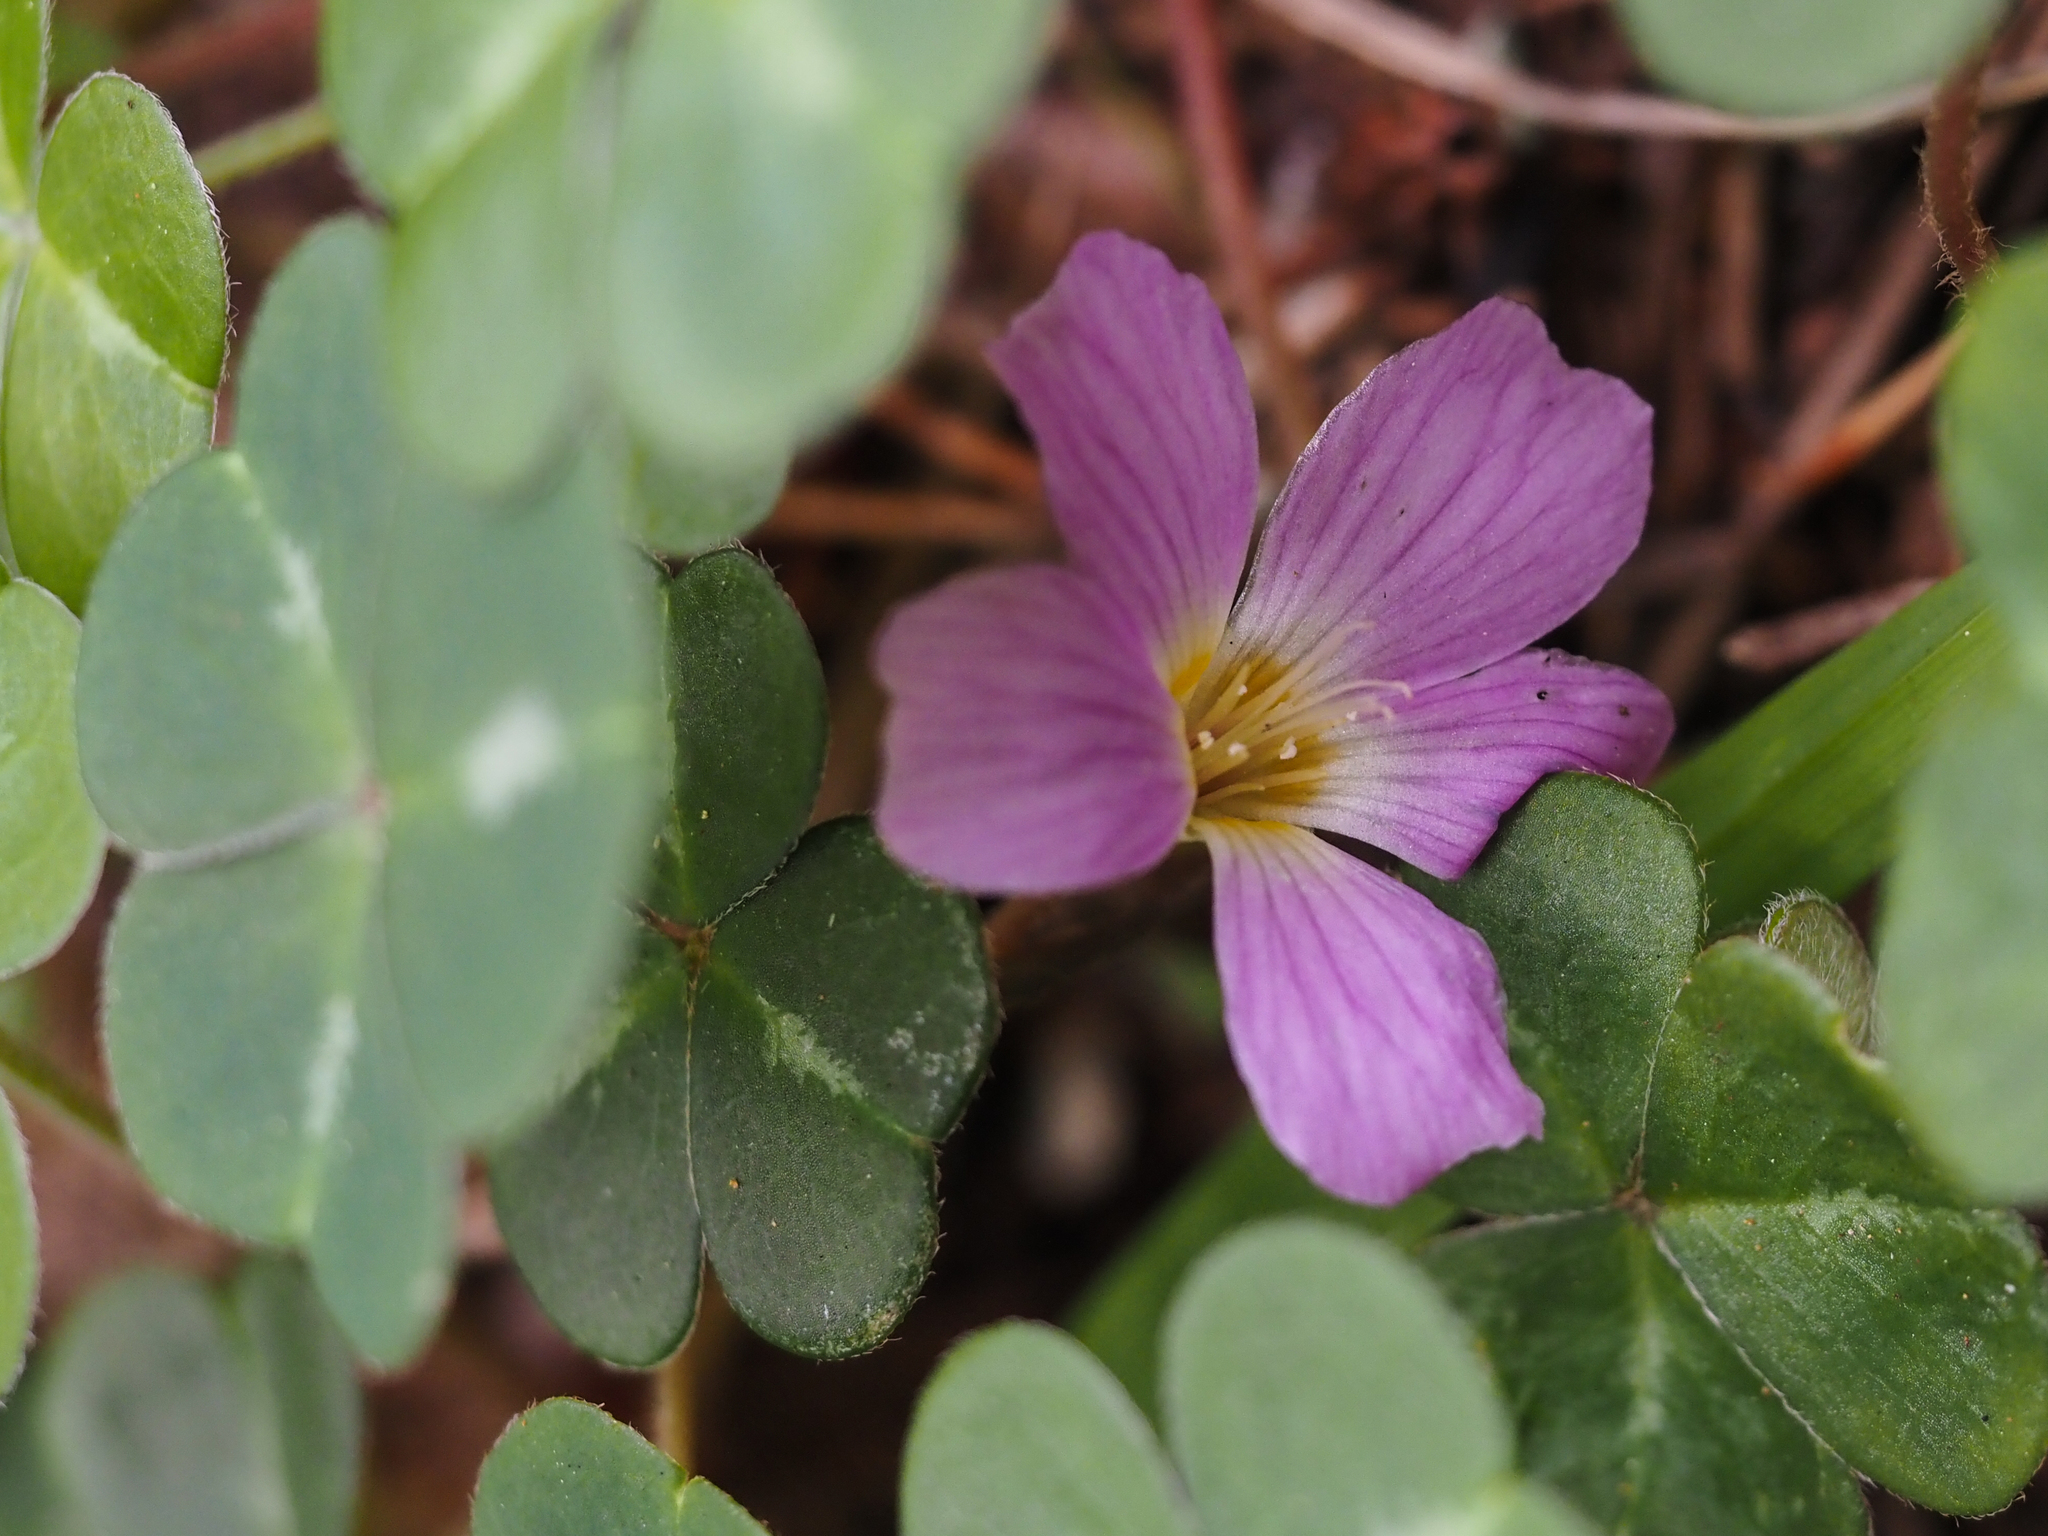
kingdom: Plantae
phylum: Tracheophyta
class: Magnoliopsida
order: Oxalidales
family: Oxalidaceae
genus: Oxalis
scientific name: Oxalis oregana
